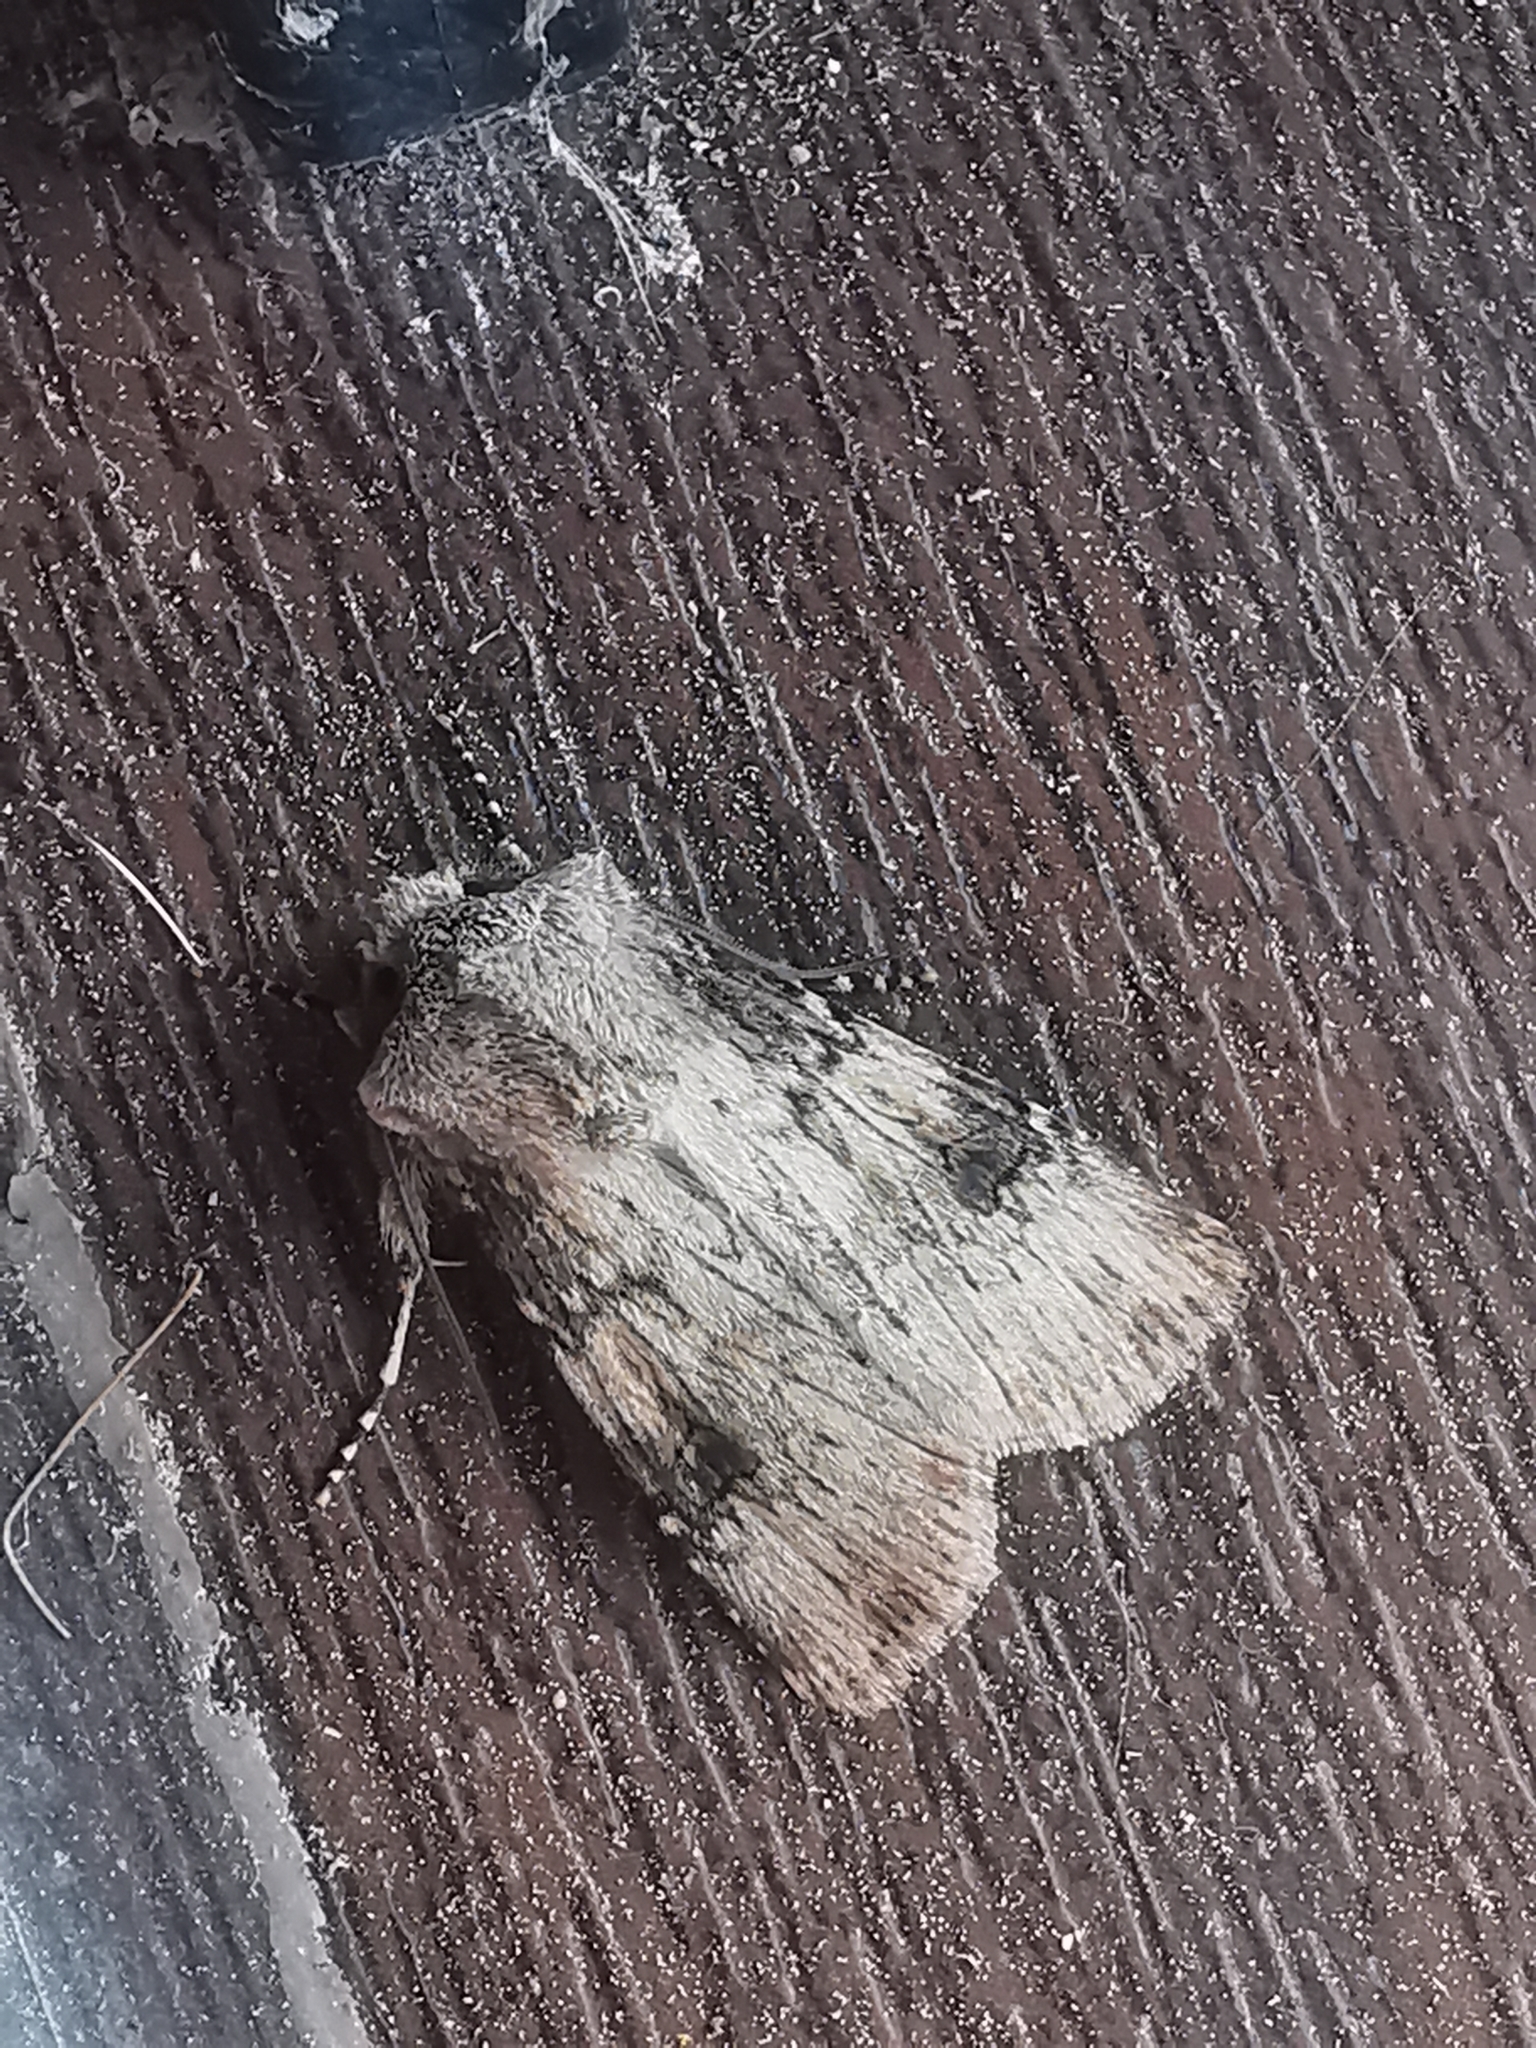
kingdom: Animalia
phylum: Arthropoda
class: Insecta
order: Lepidoptera
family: Noctuidae
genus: Agrotis
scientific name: Agrotis puta
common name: Shuttle-shaped dart
